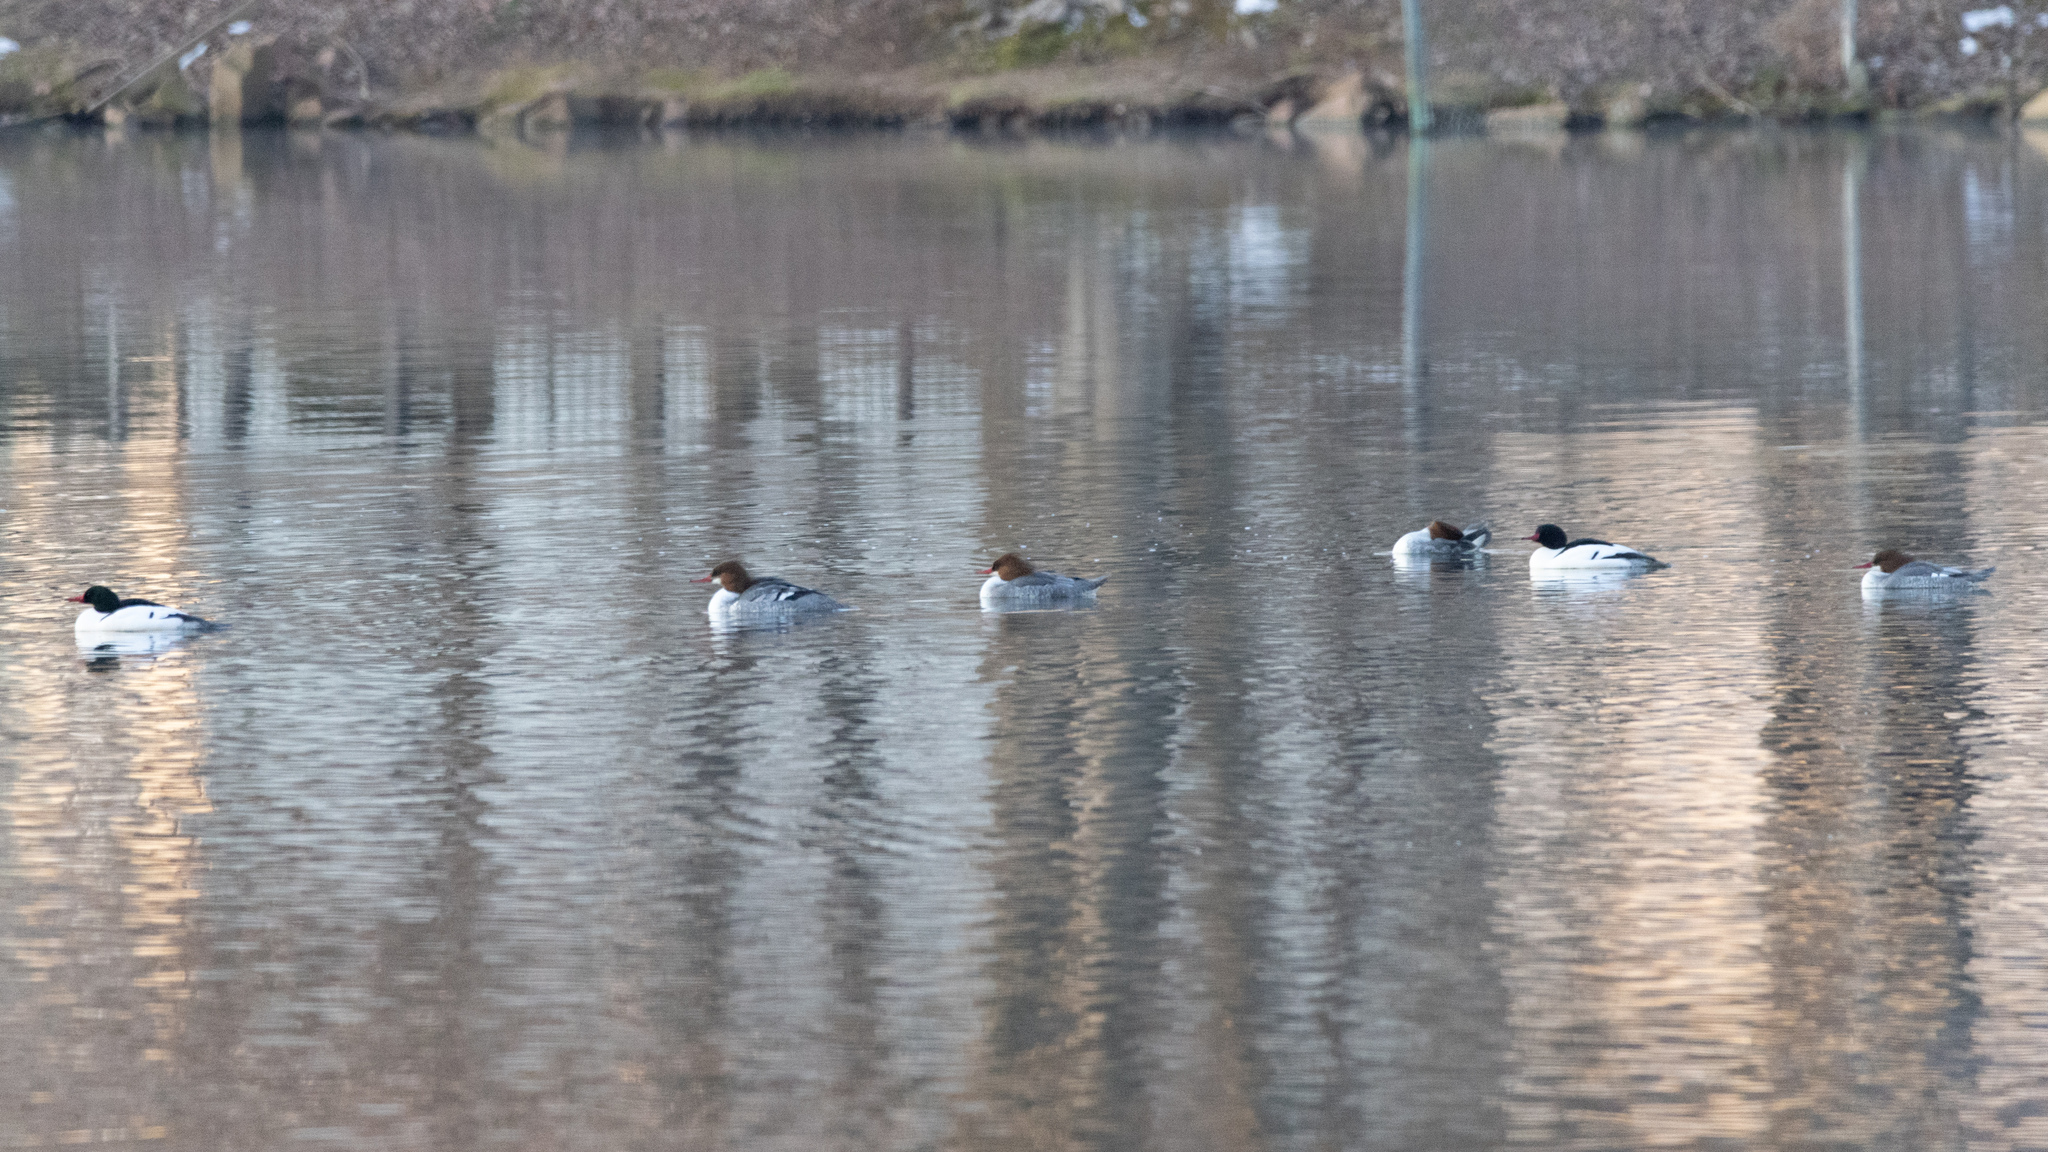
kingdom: Animalia
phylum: Chordata
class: Aves
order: Anseriformes
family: Anatidae
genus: Mergus
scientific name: Mergus merganser
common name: Common merganser
